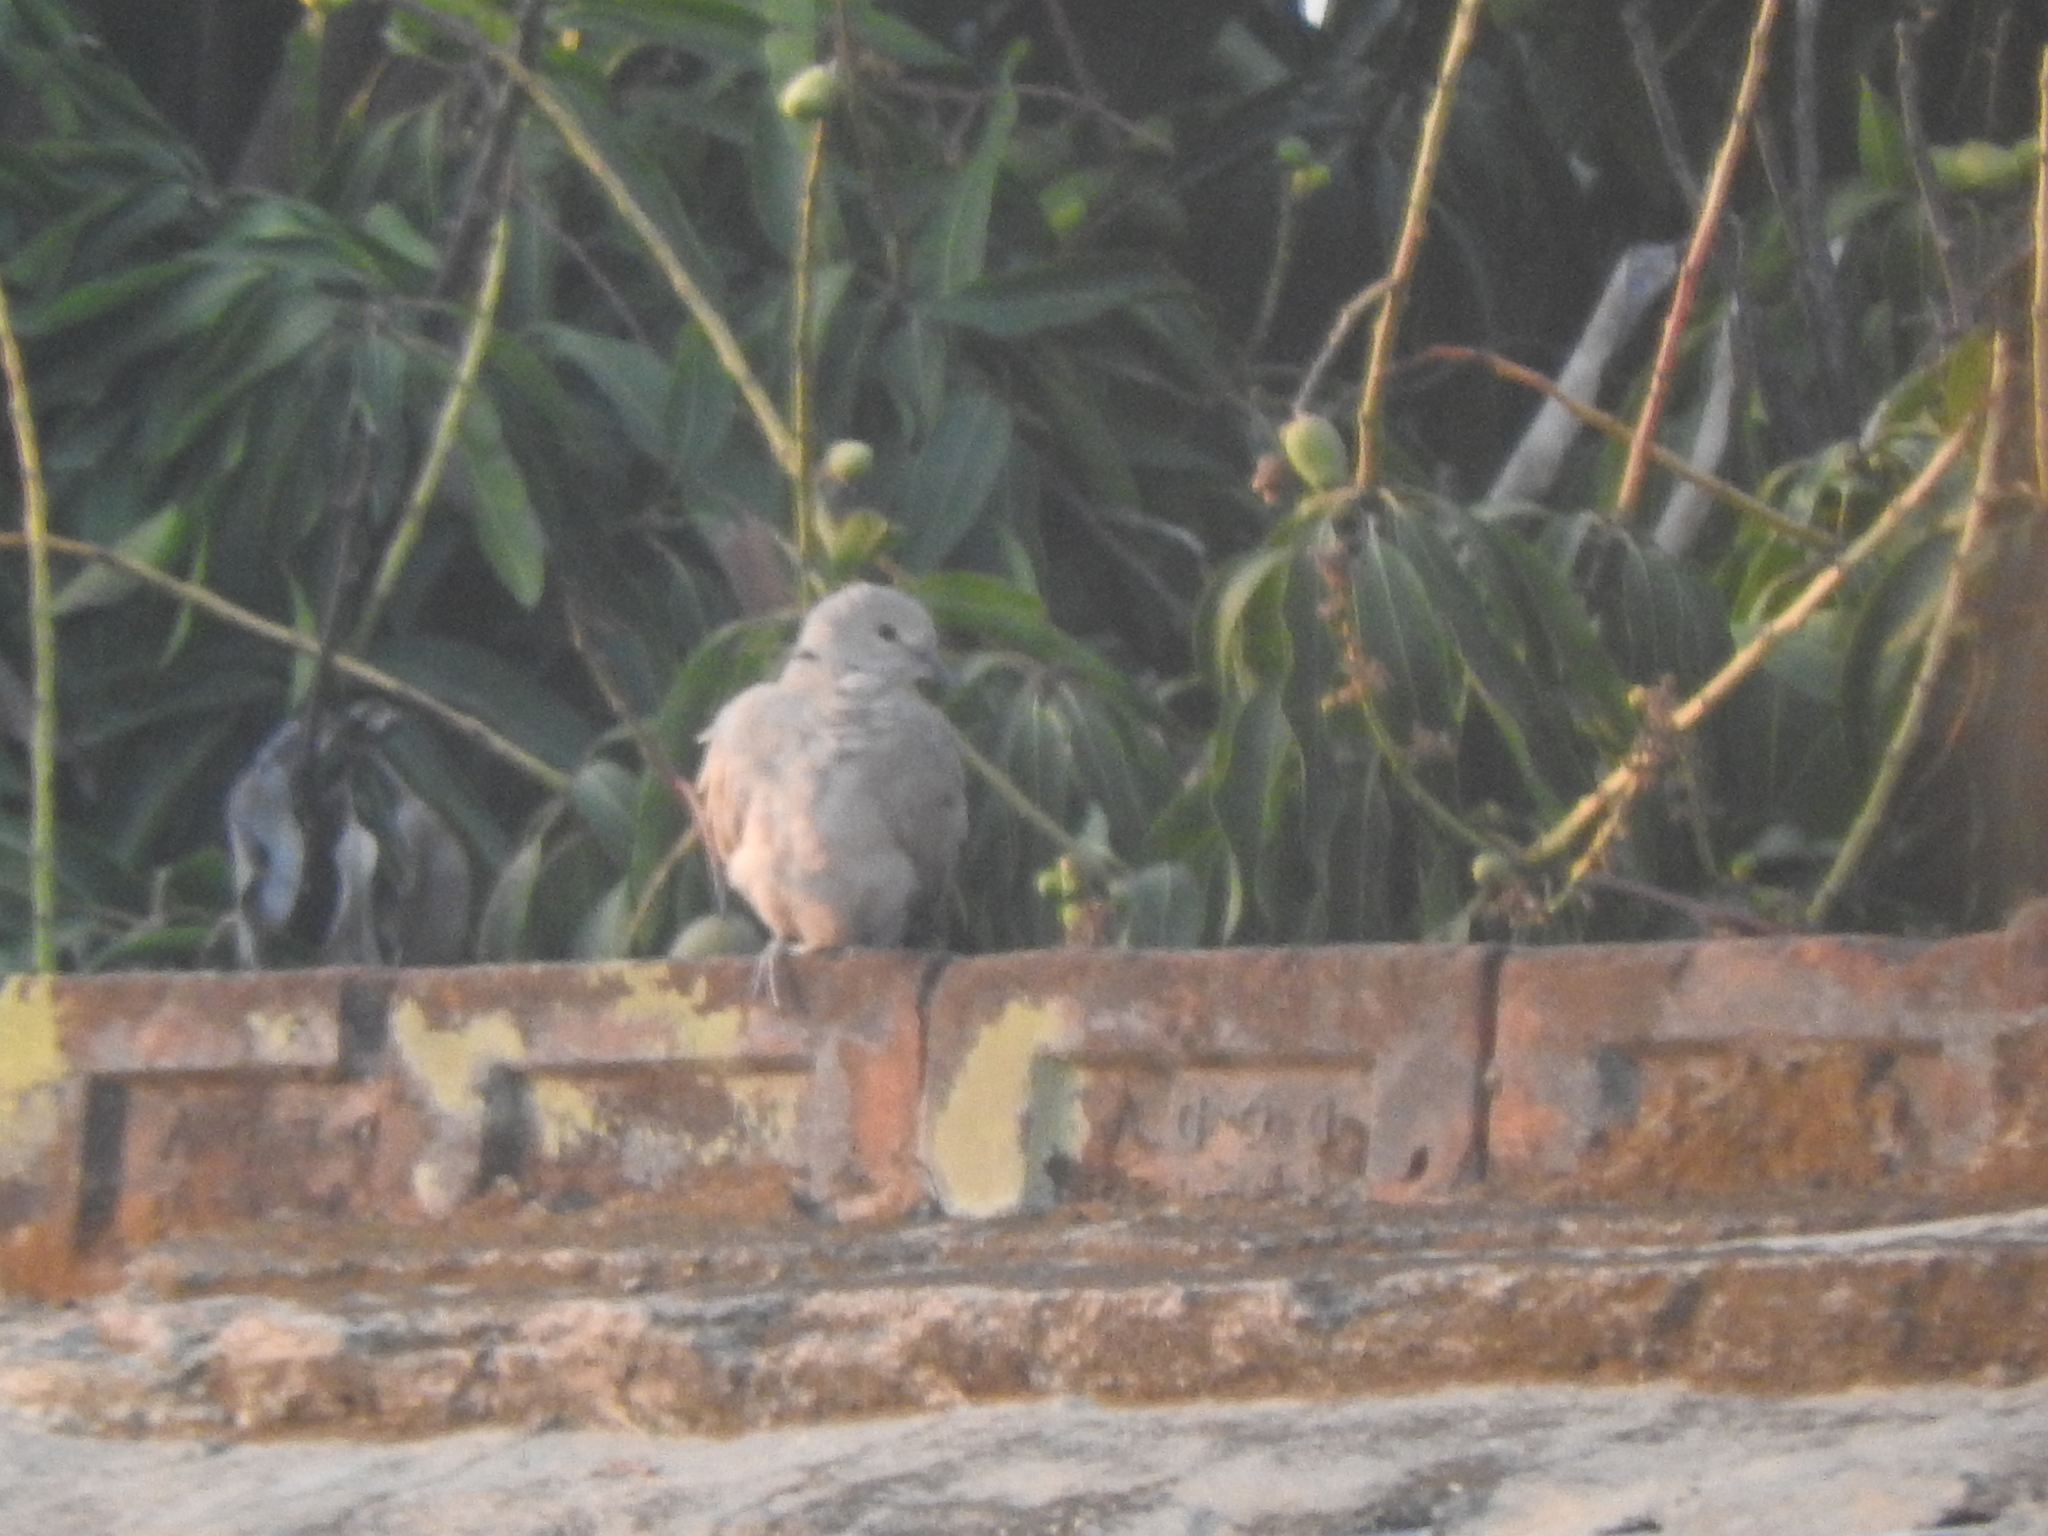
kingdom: Animalia
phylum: Chordata
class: Aves
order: Columbiformes
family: Columbidae
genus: Streptopelia
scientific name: Streptopelia decaocto
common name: Eurasian collared dove
